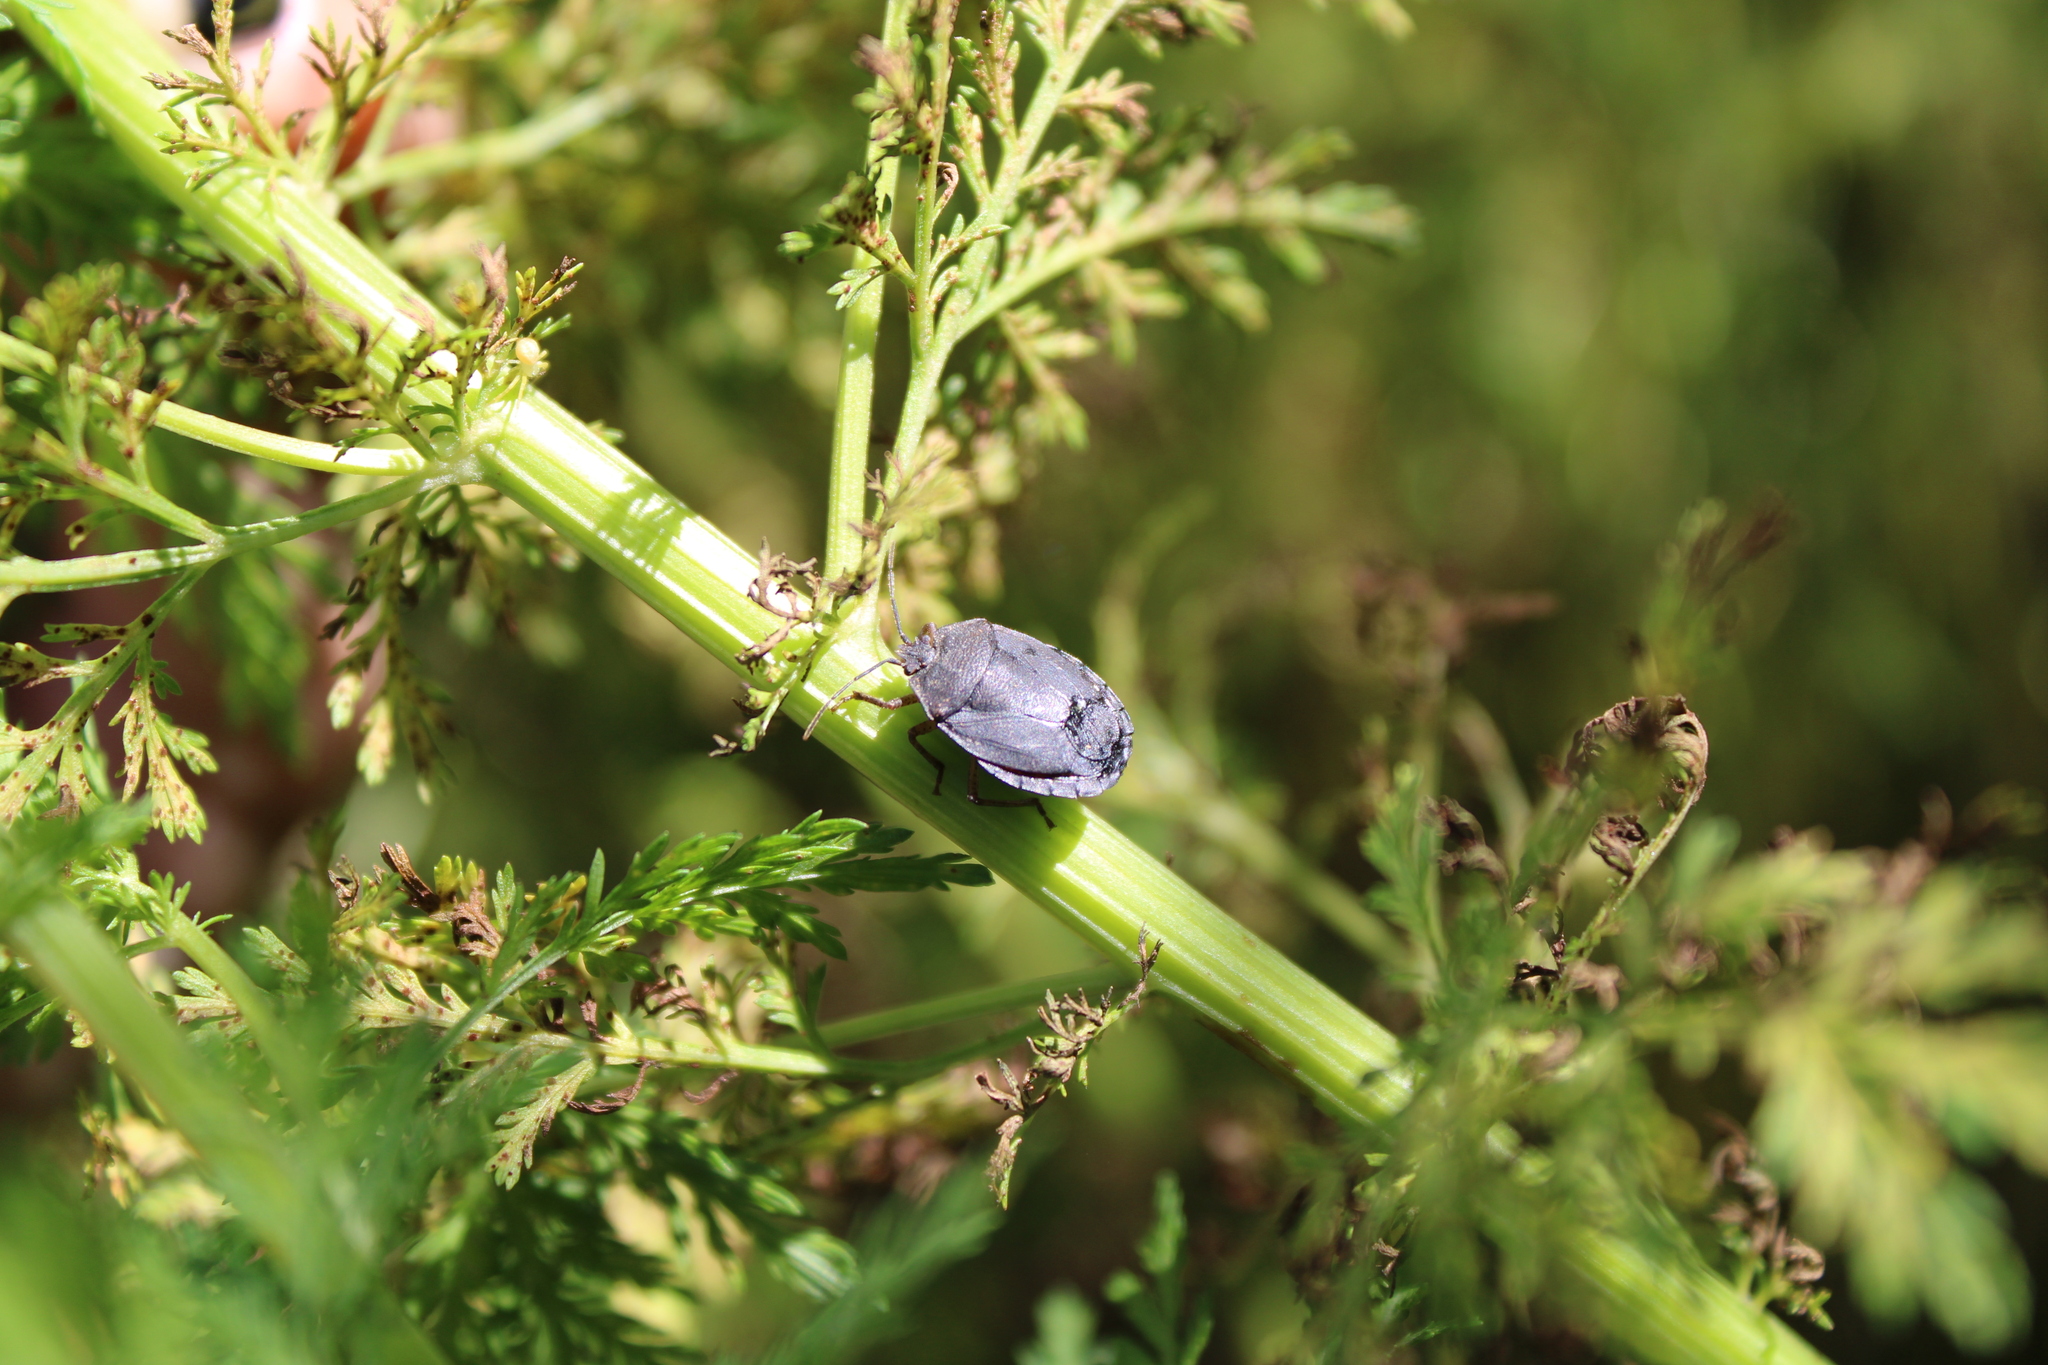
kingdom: Animalia
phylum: Arthropoda
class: Insecta
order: Hemiptera
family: Pentatomidae
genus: Macropygium
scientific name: Macropygium graziae
